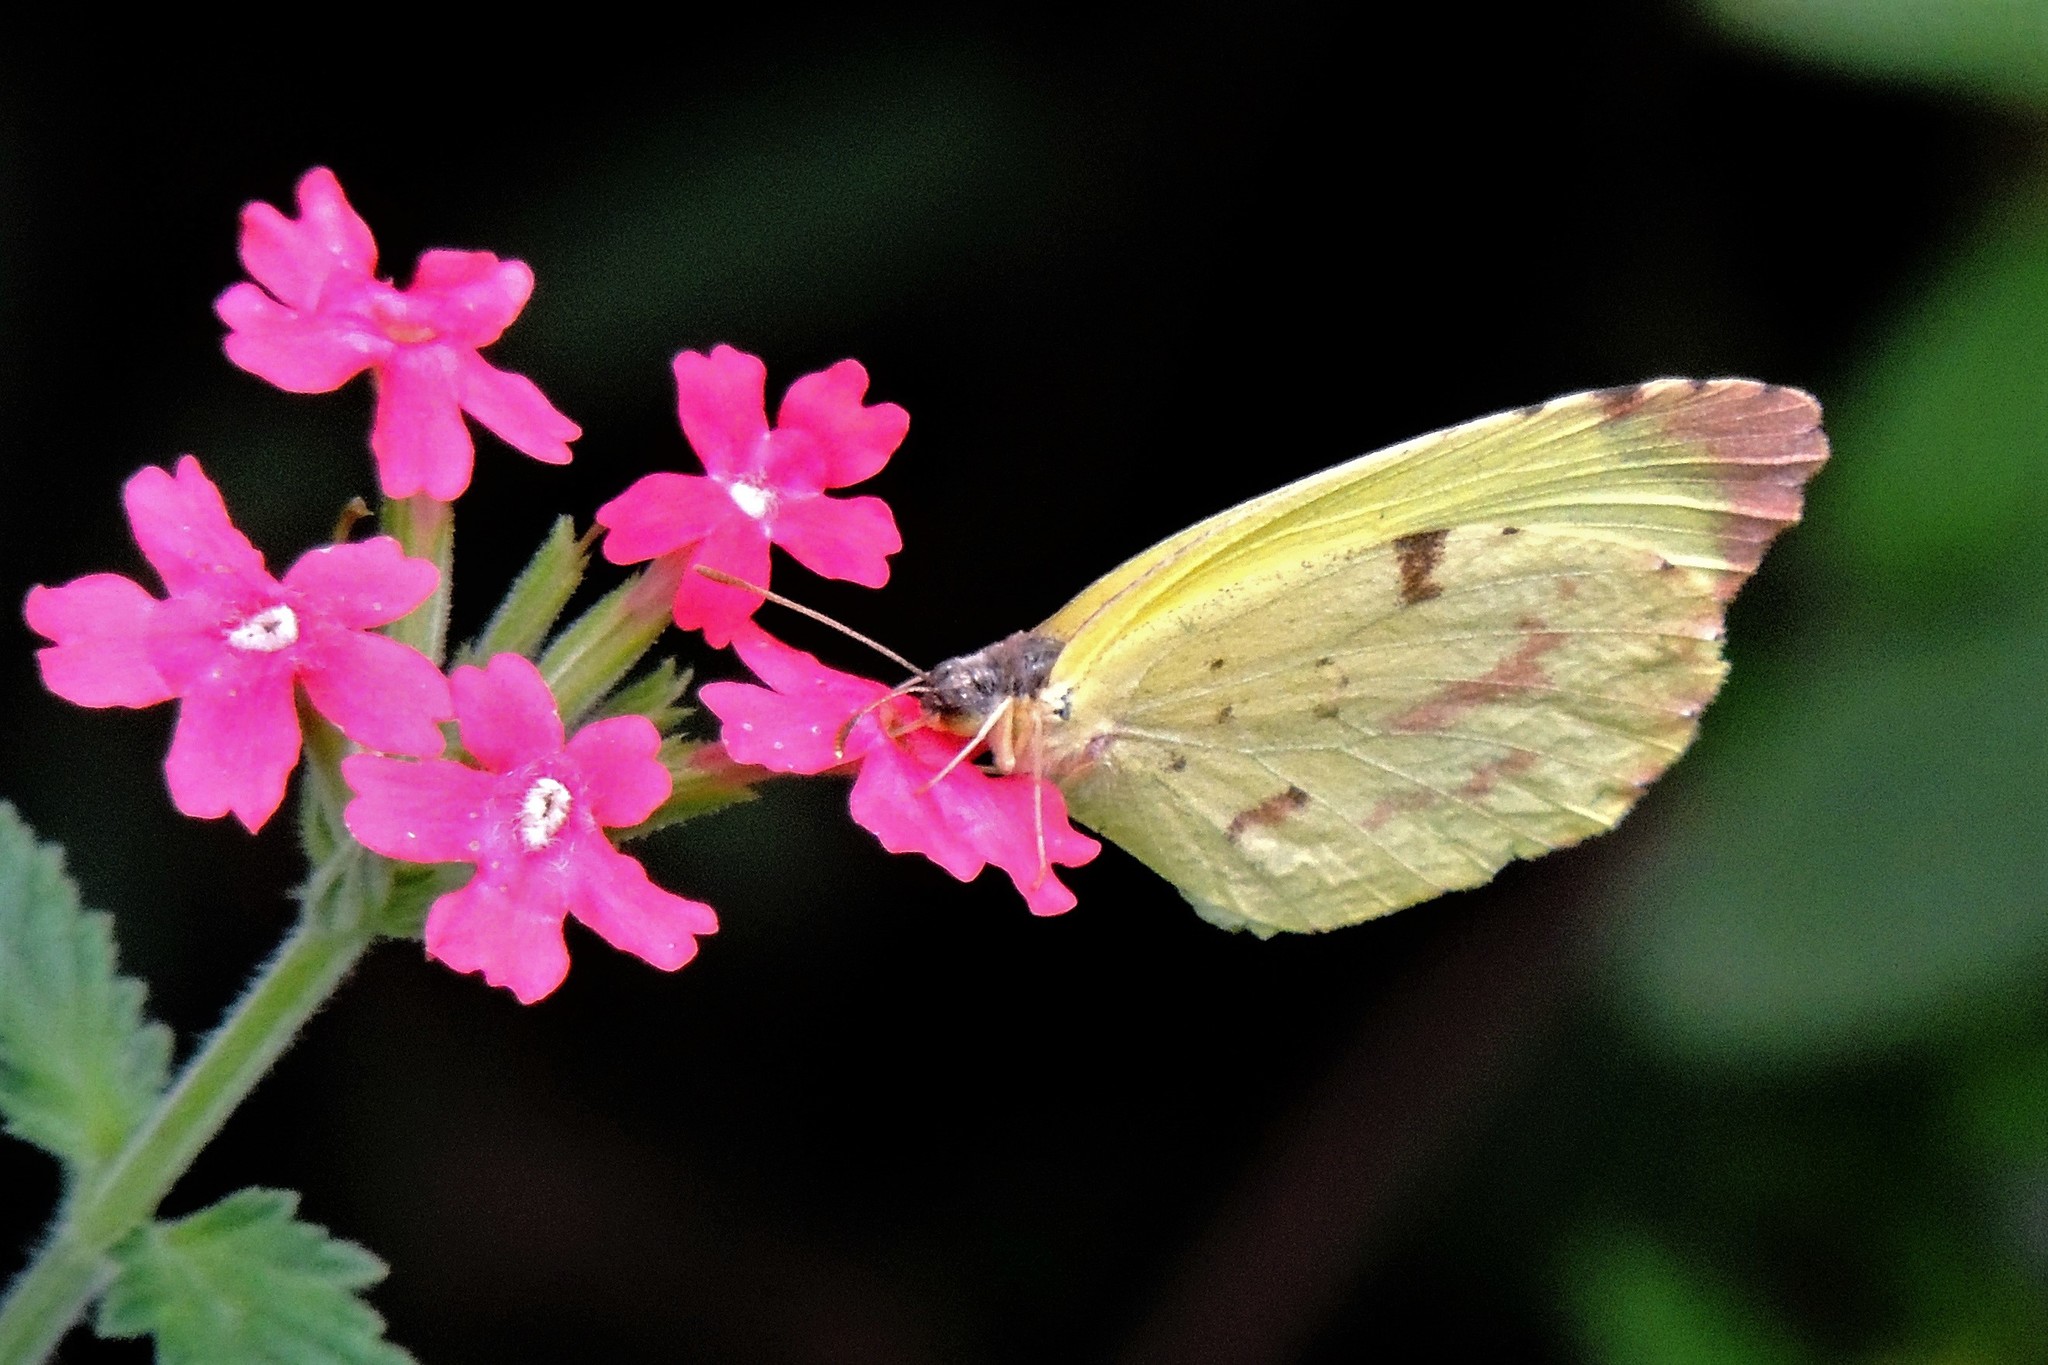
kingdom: Animalia
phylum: Arthropoda
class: Insecta
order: Lepidoptera
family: Pieridae
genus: Teriocolias
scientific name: Teriocolias
